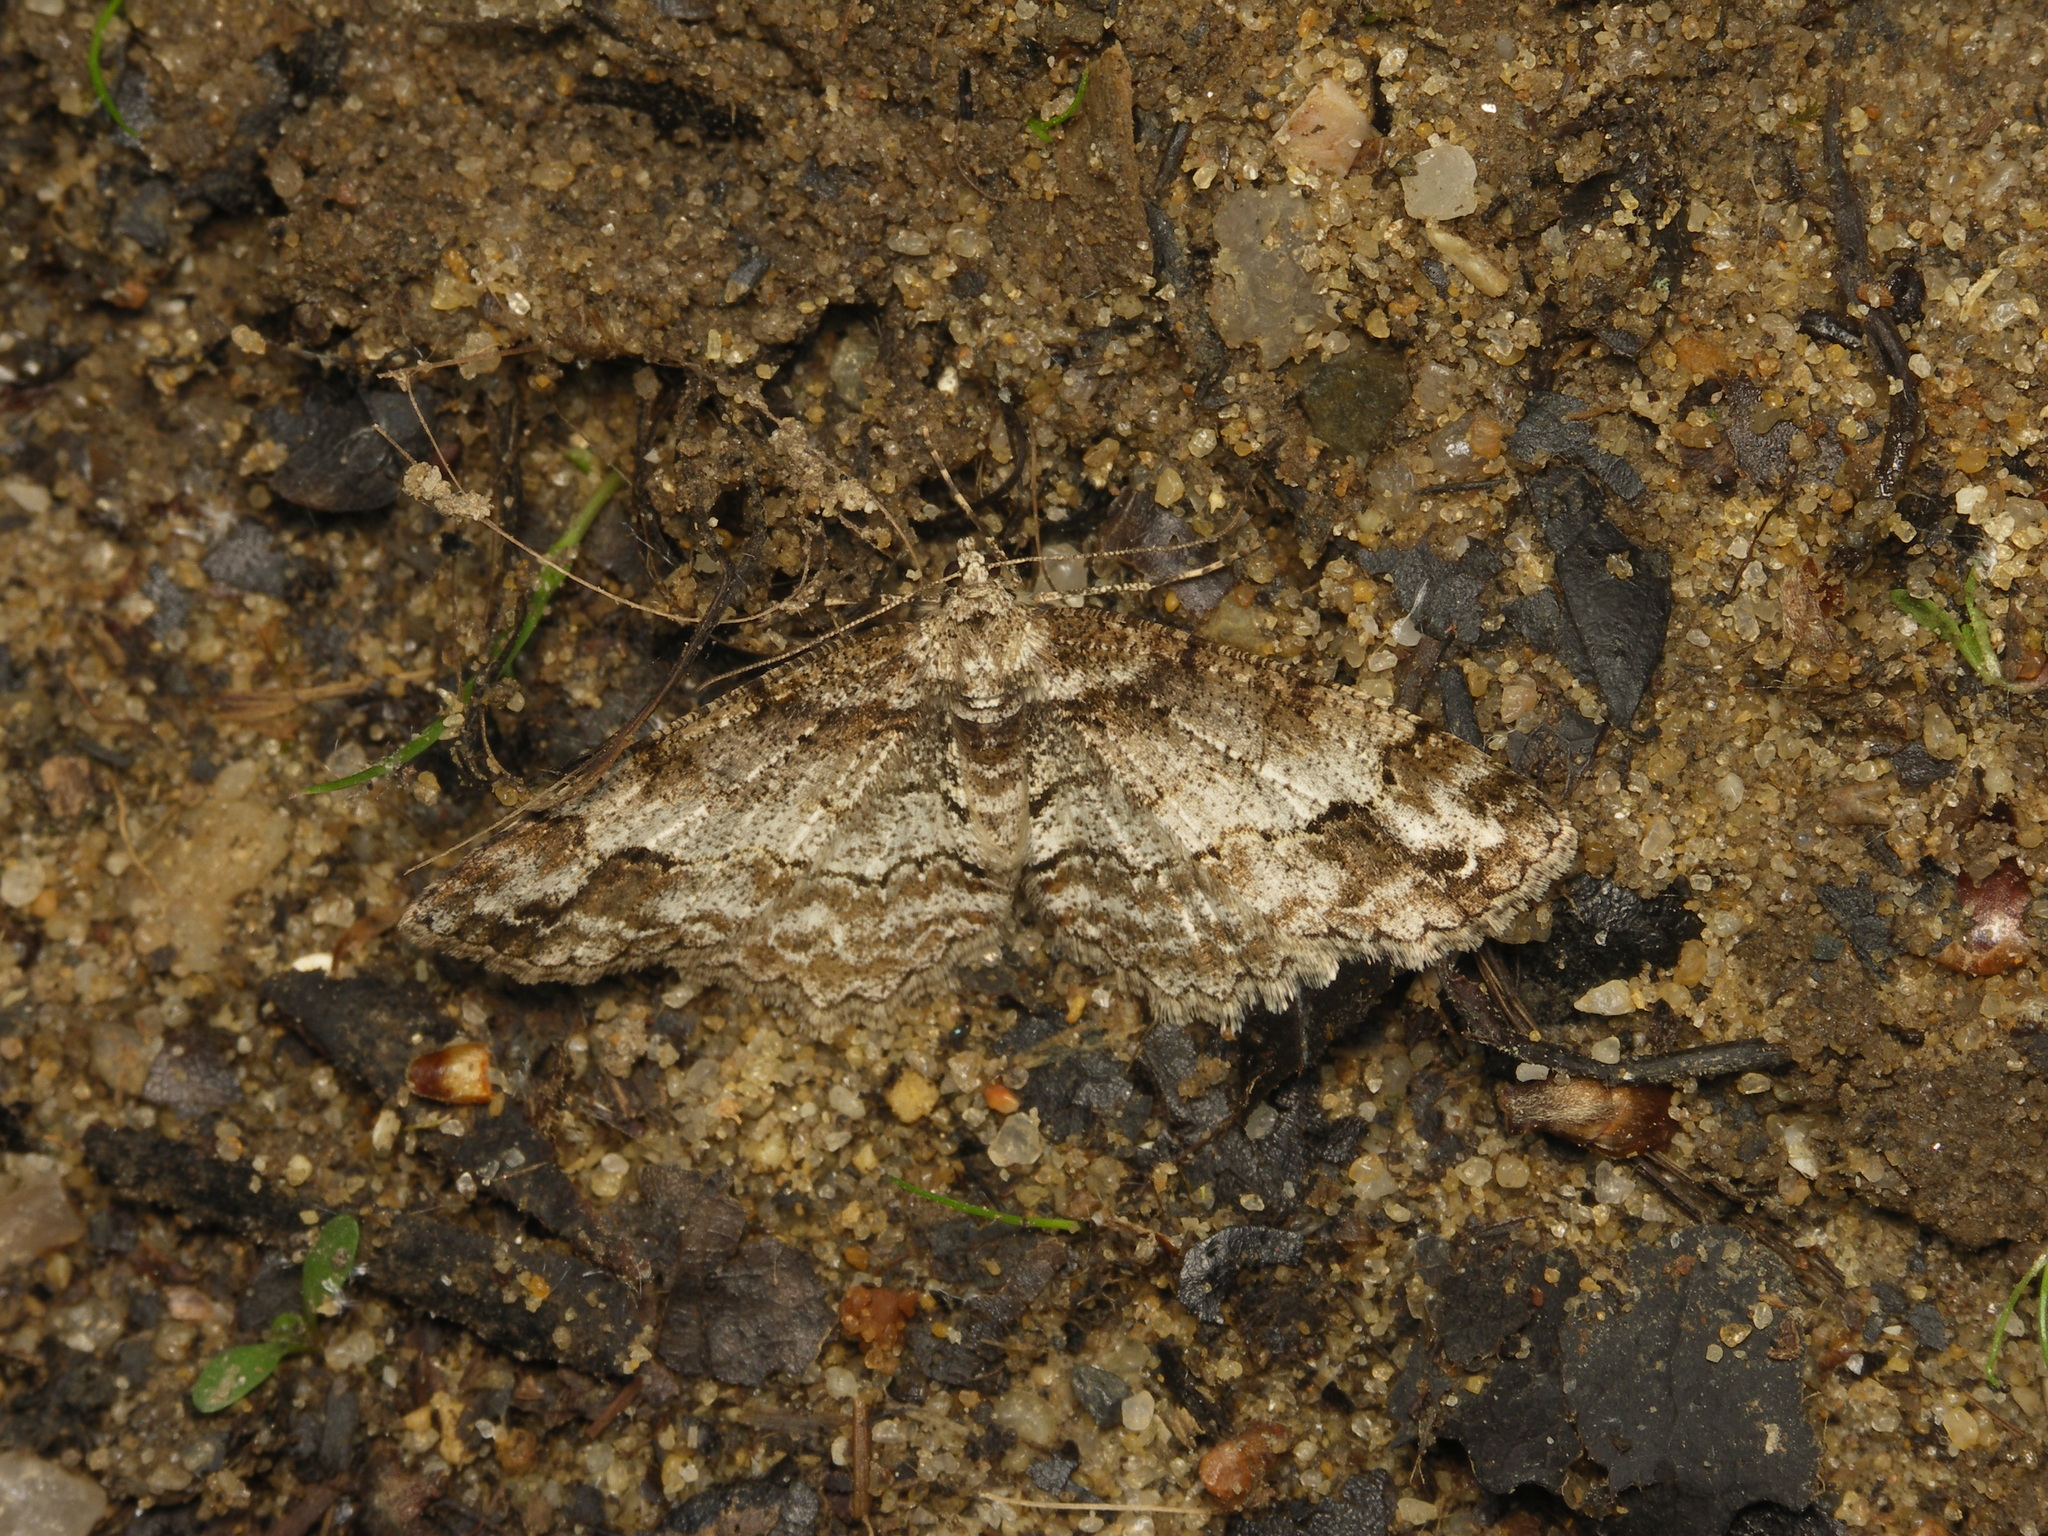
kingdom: Animalia
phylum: Arthropoda
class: Insecta
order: Lepidoptera
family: Geometridae
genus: Paradarisa
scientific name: Paradarisa consonaria
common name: Square spot
